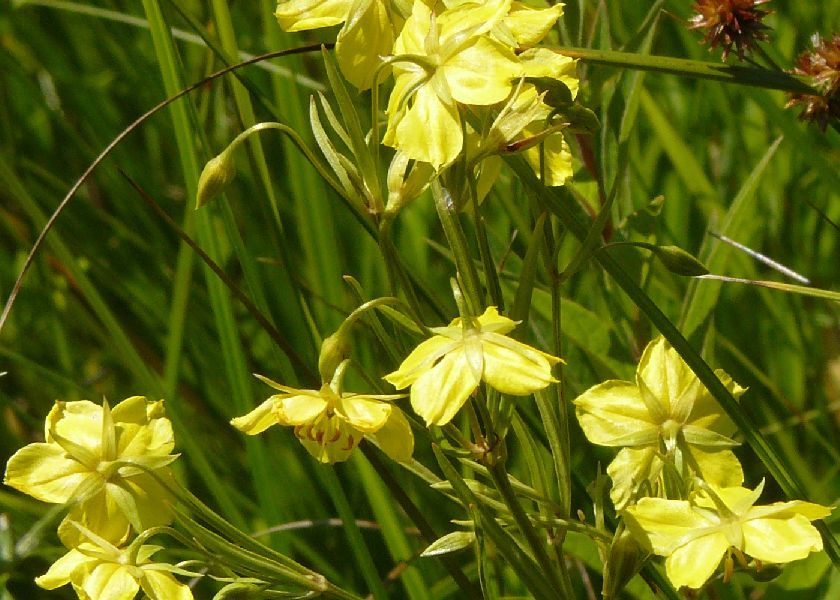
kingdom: Plantae
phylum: Tracheophyta
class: Magnoliopsida
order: Ericales
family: Primulaceae
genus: Lysimachia
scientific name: Lysimachia ciliata
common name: Fringed loosestrife
